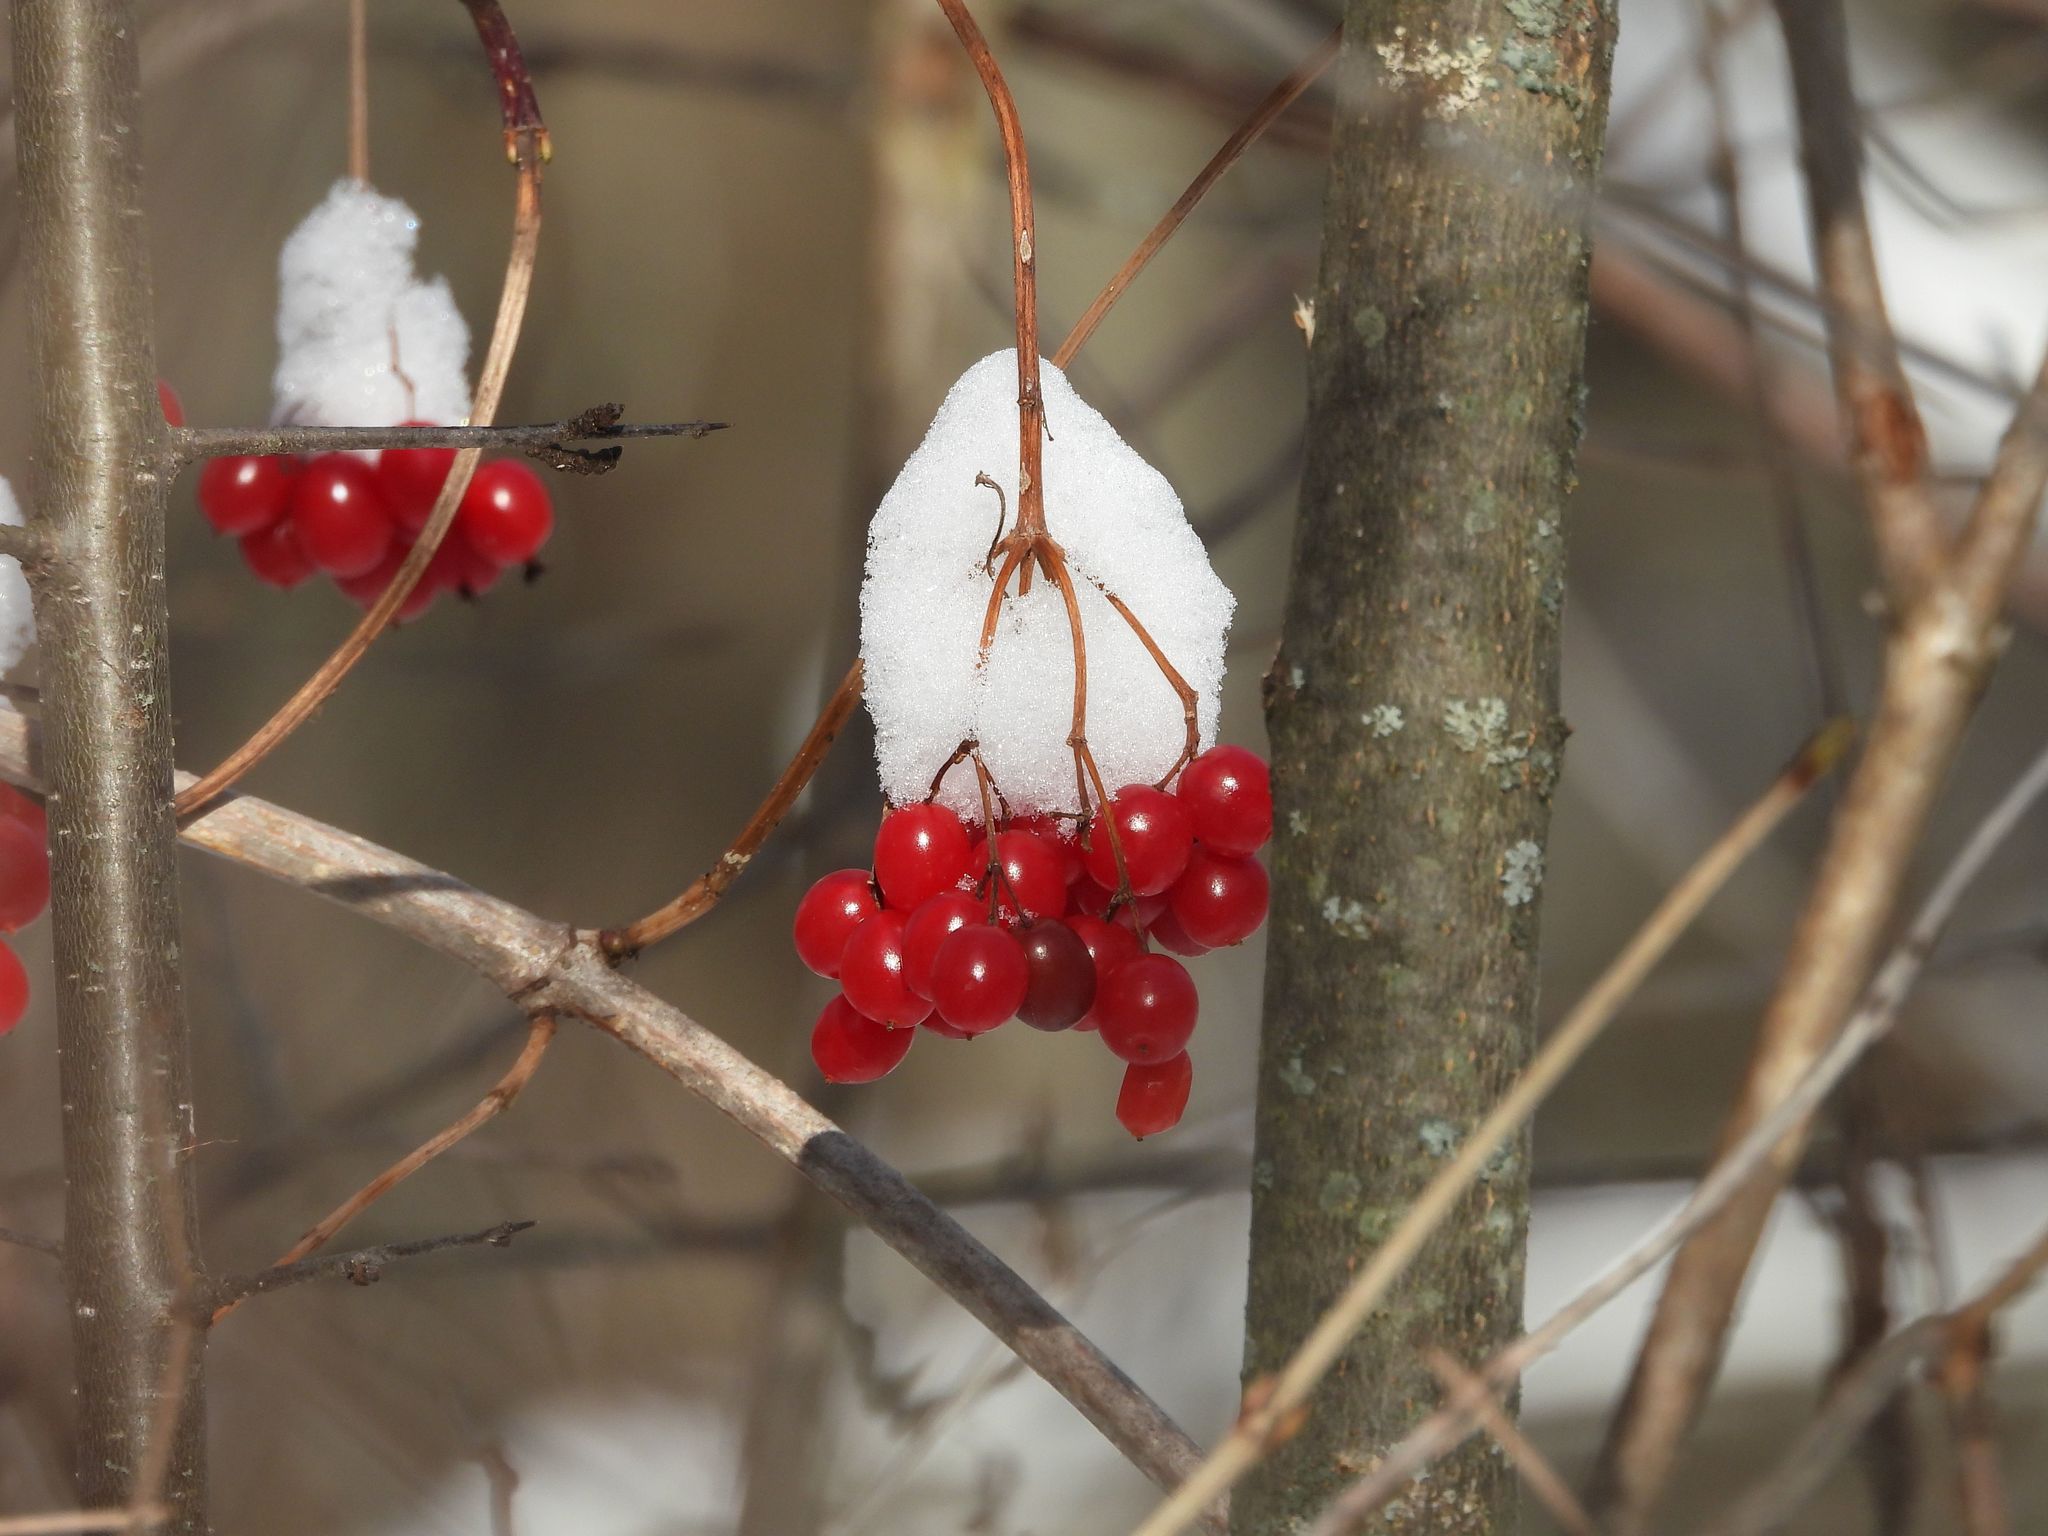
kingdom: Plantae
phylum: Tracheophyta
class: Magnoliopsida
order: Dipsacales
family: Viburnaceae
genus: Viburnum
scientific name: Viburnum opulus
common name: Guelder-rose
